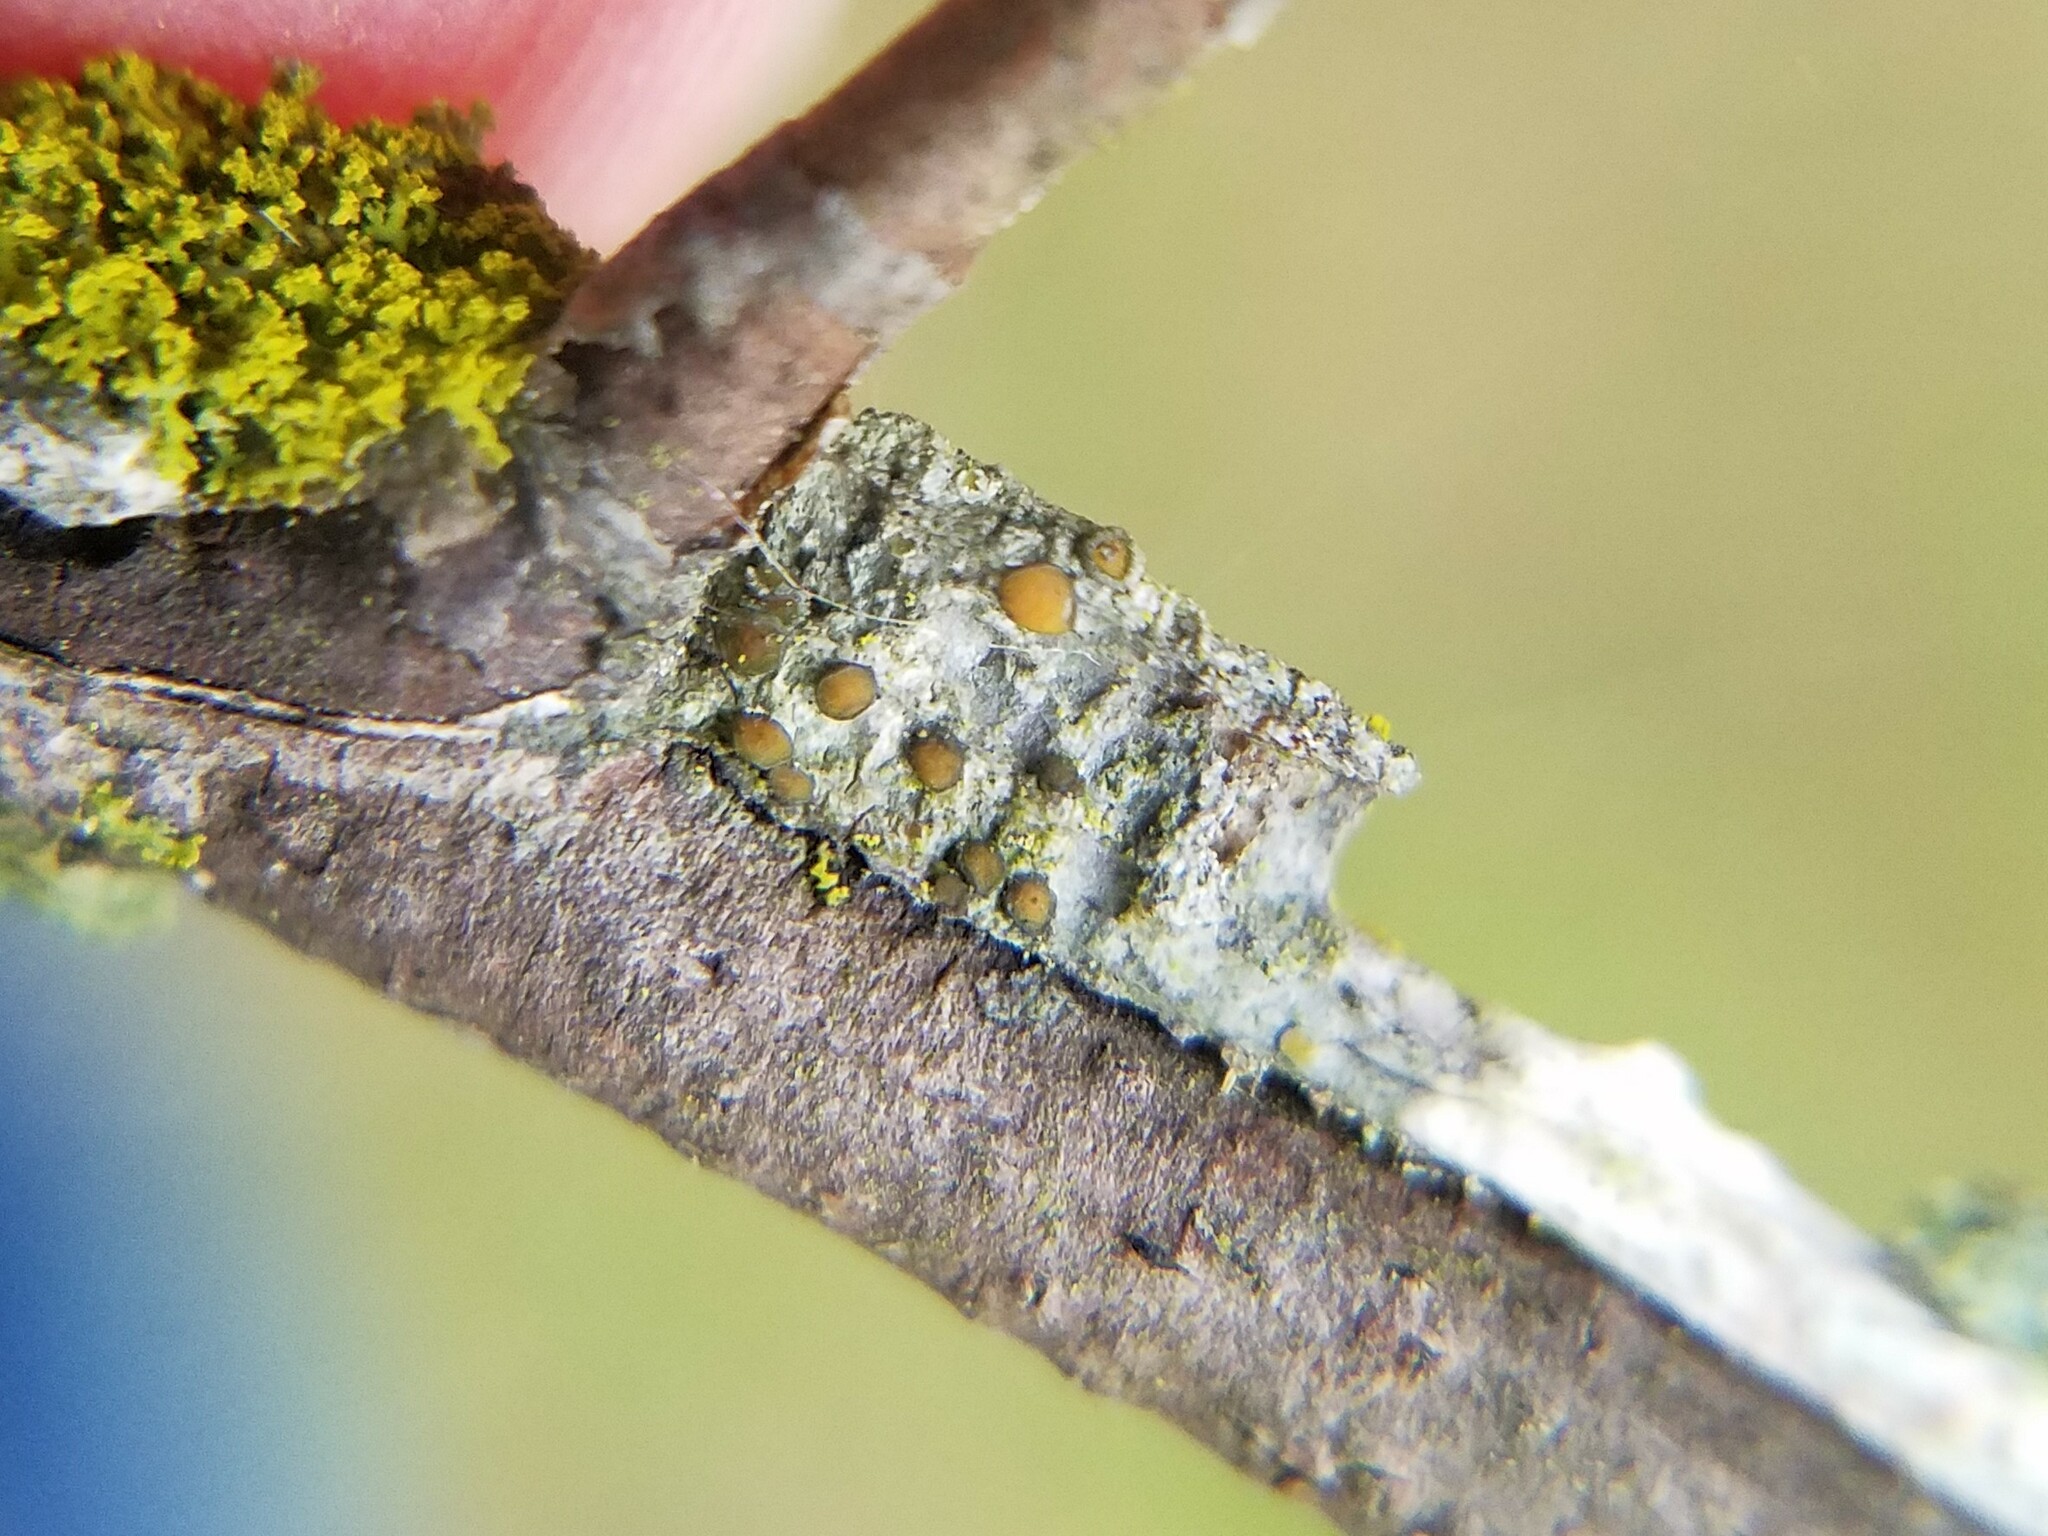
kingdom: Fungi
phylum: Ascomycota
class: Lecanoromycetes
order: Teloschistales
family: Teloschistaceae
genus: Caloplaca
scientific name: Caloplaca cerina
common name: Gray-rimmed firedot lichen
